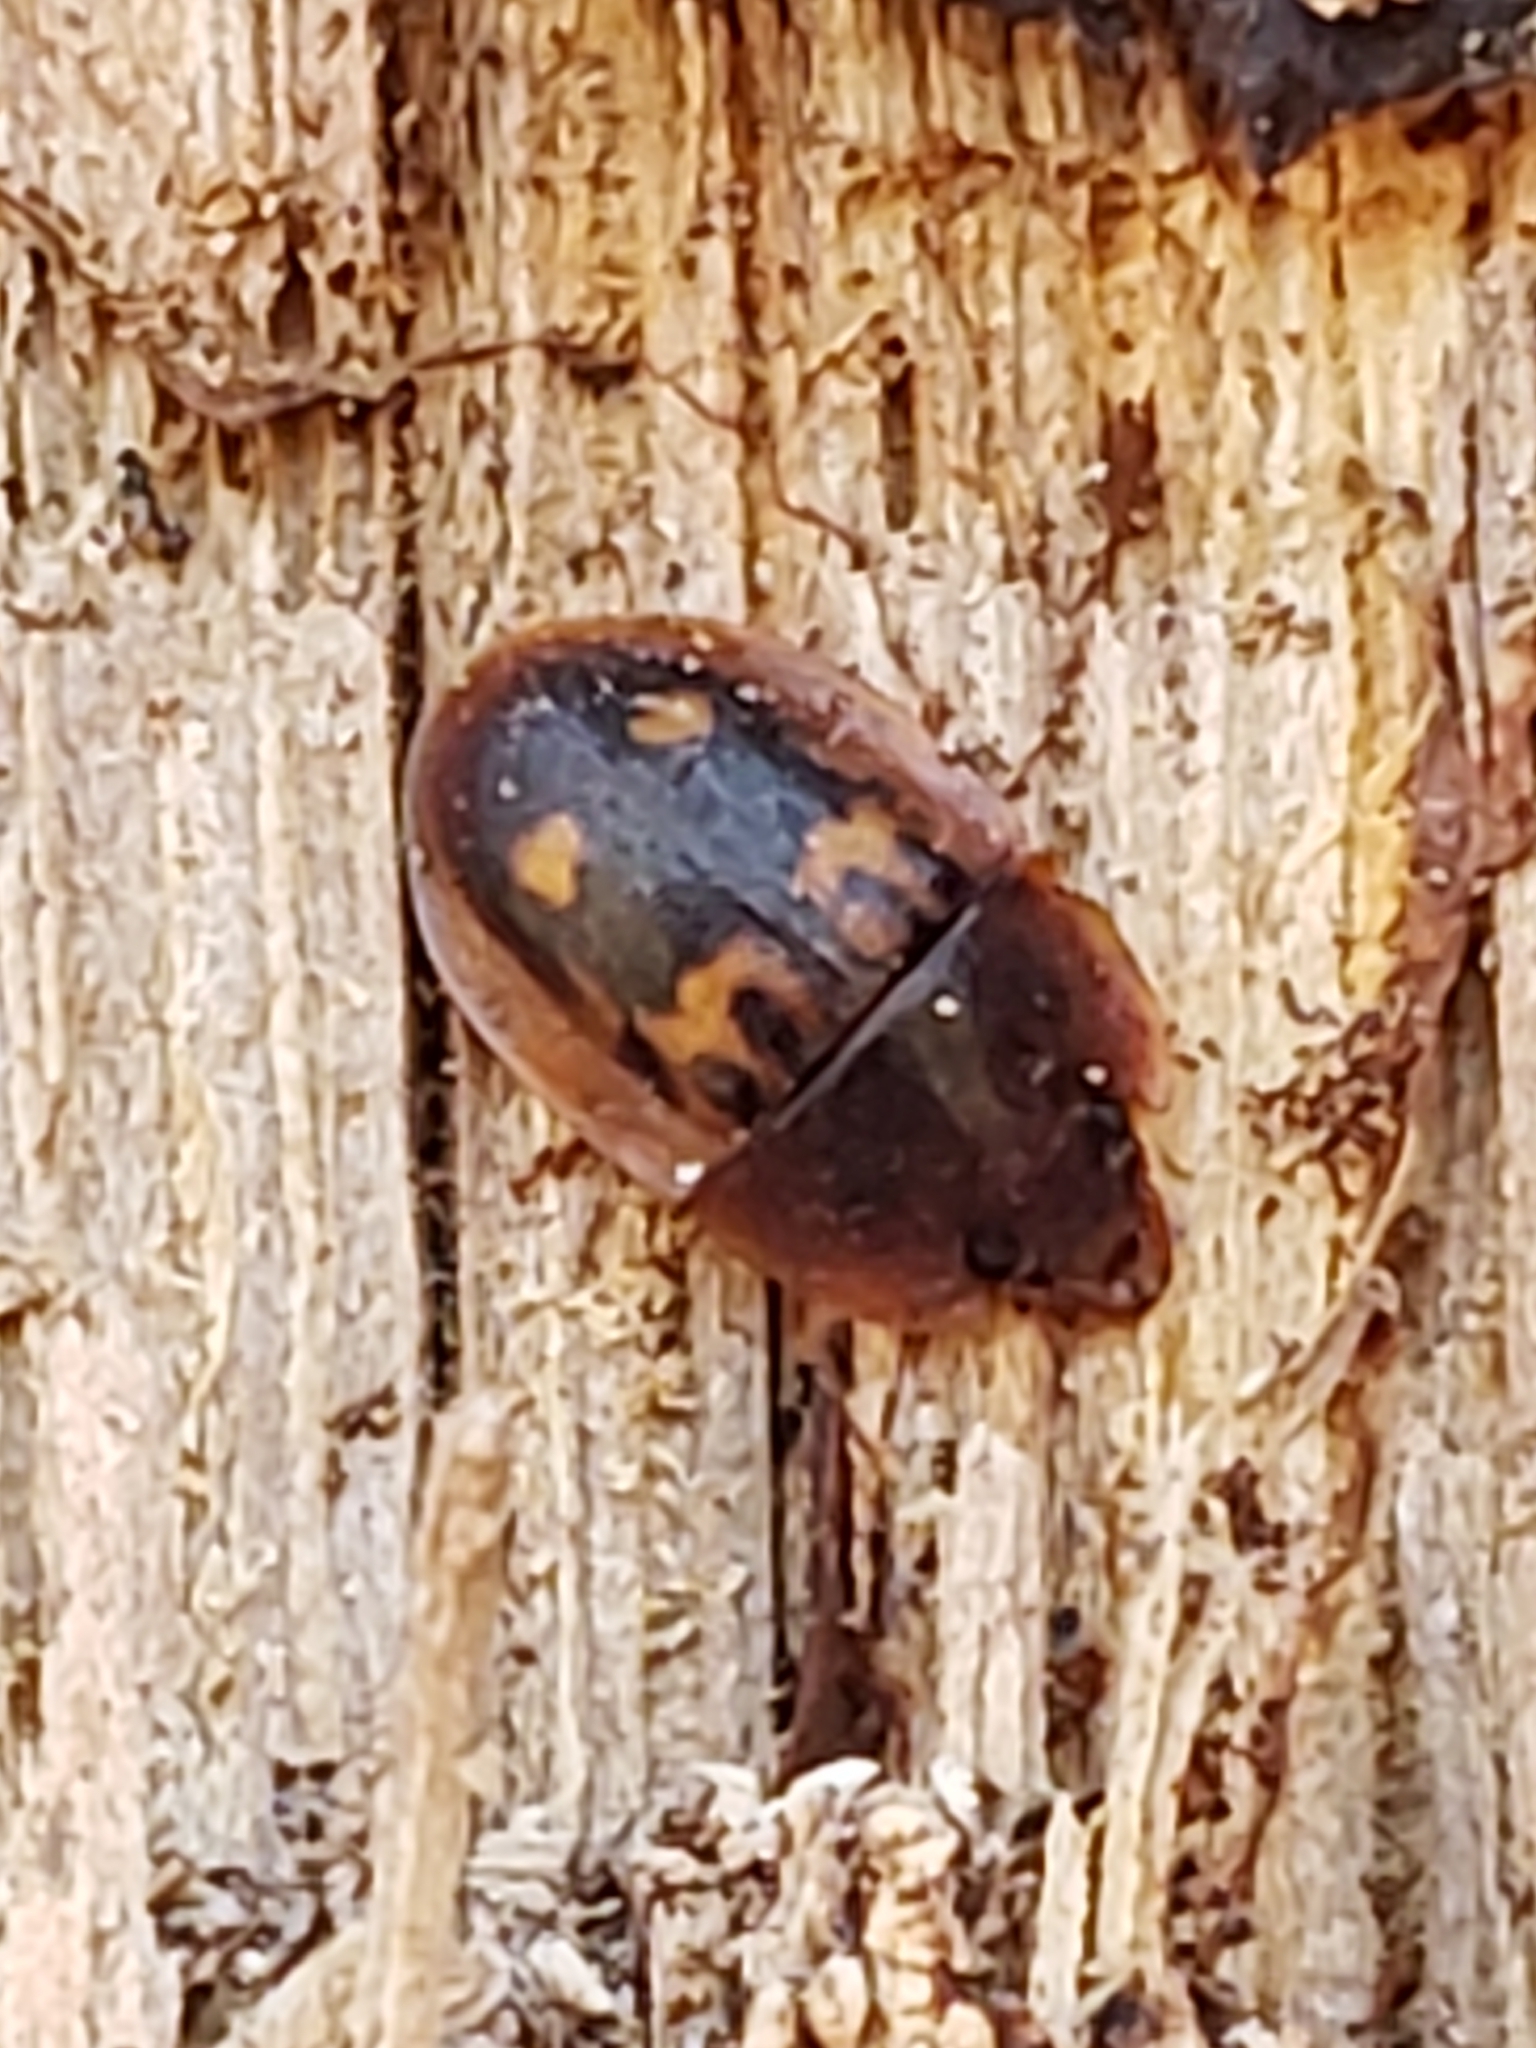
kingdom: Animalia
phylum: Arthropoda
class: Insecta
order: Coleoptera
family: Nitidulidae
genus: Prometopia
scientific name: Prometopia sexmaculata
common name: Six-spotted sap-feeding beetle
